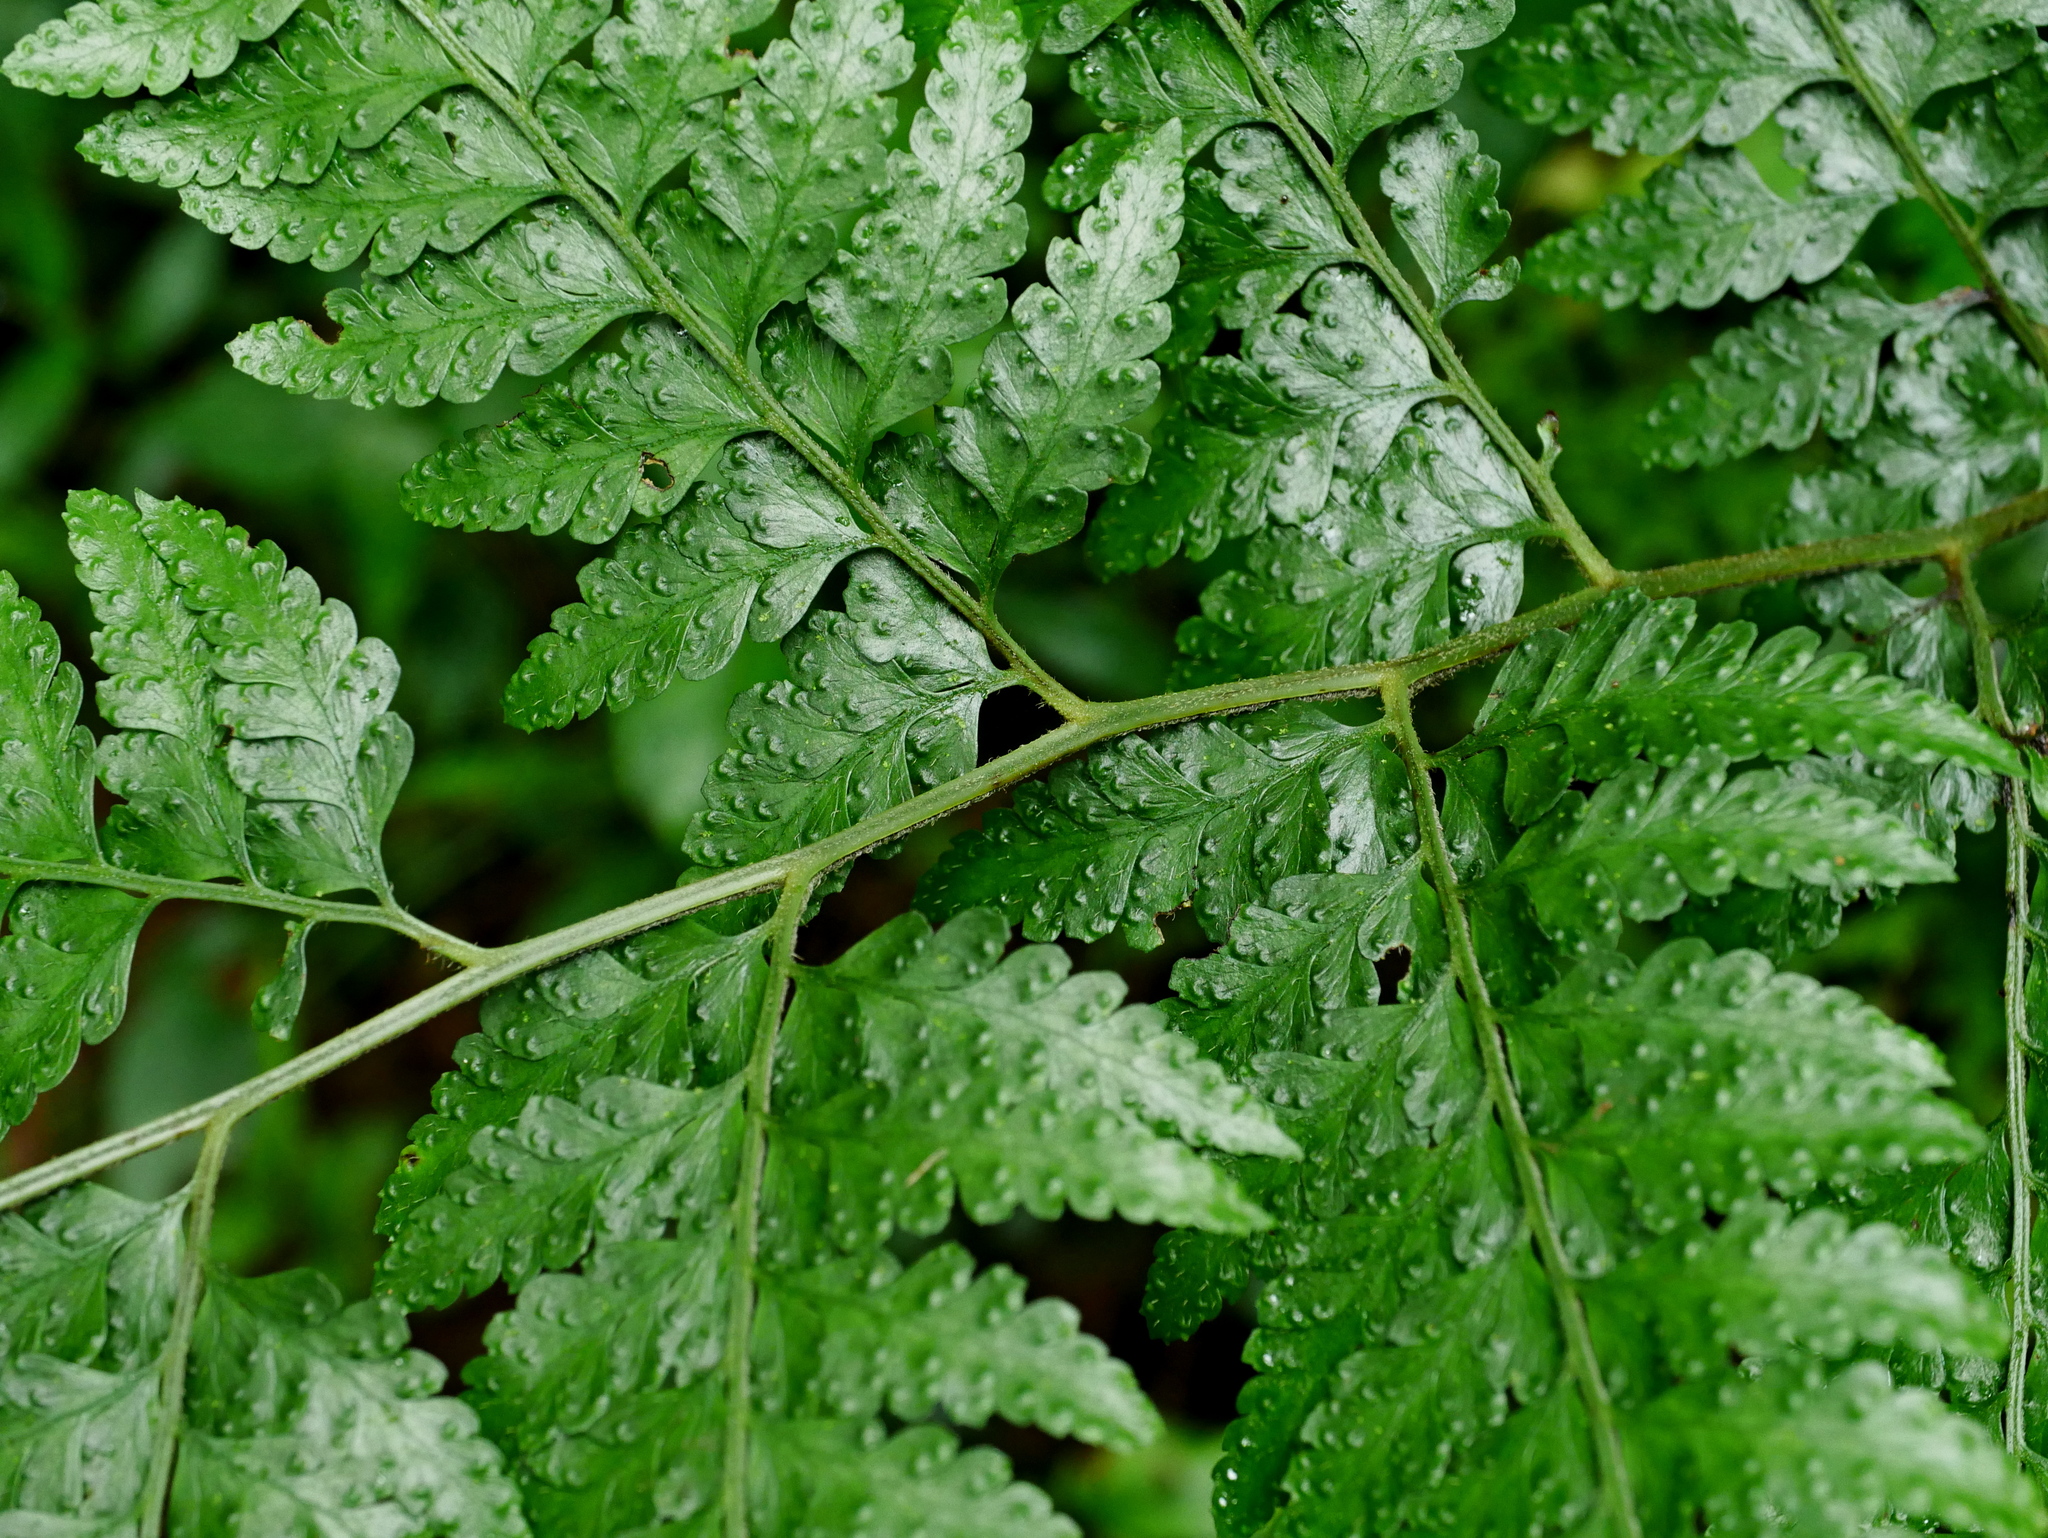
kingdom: Plantae
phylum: Tracheophyta
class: Polypodiopsida
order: Polypodiales
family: Dennstaedtiaceae
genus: Microlepia
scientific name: Microlepia krameri
